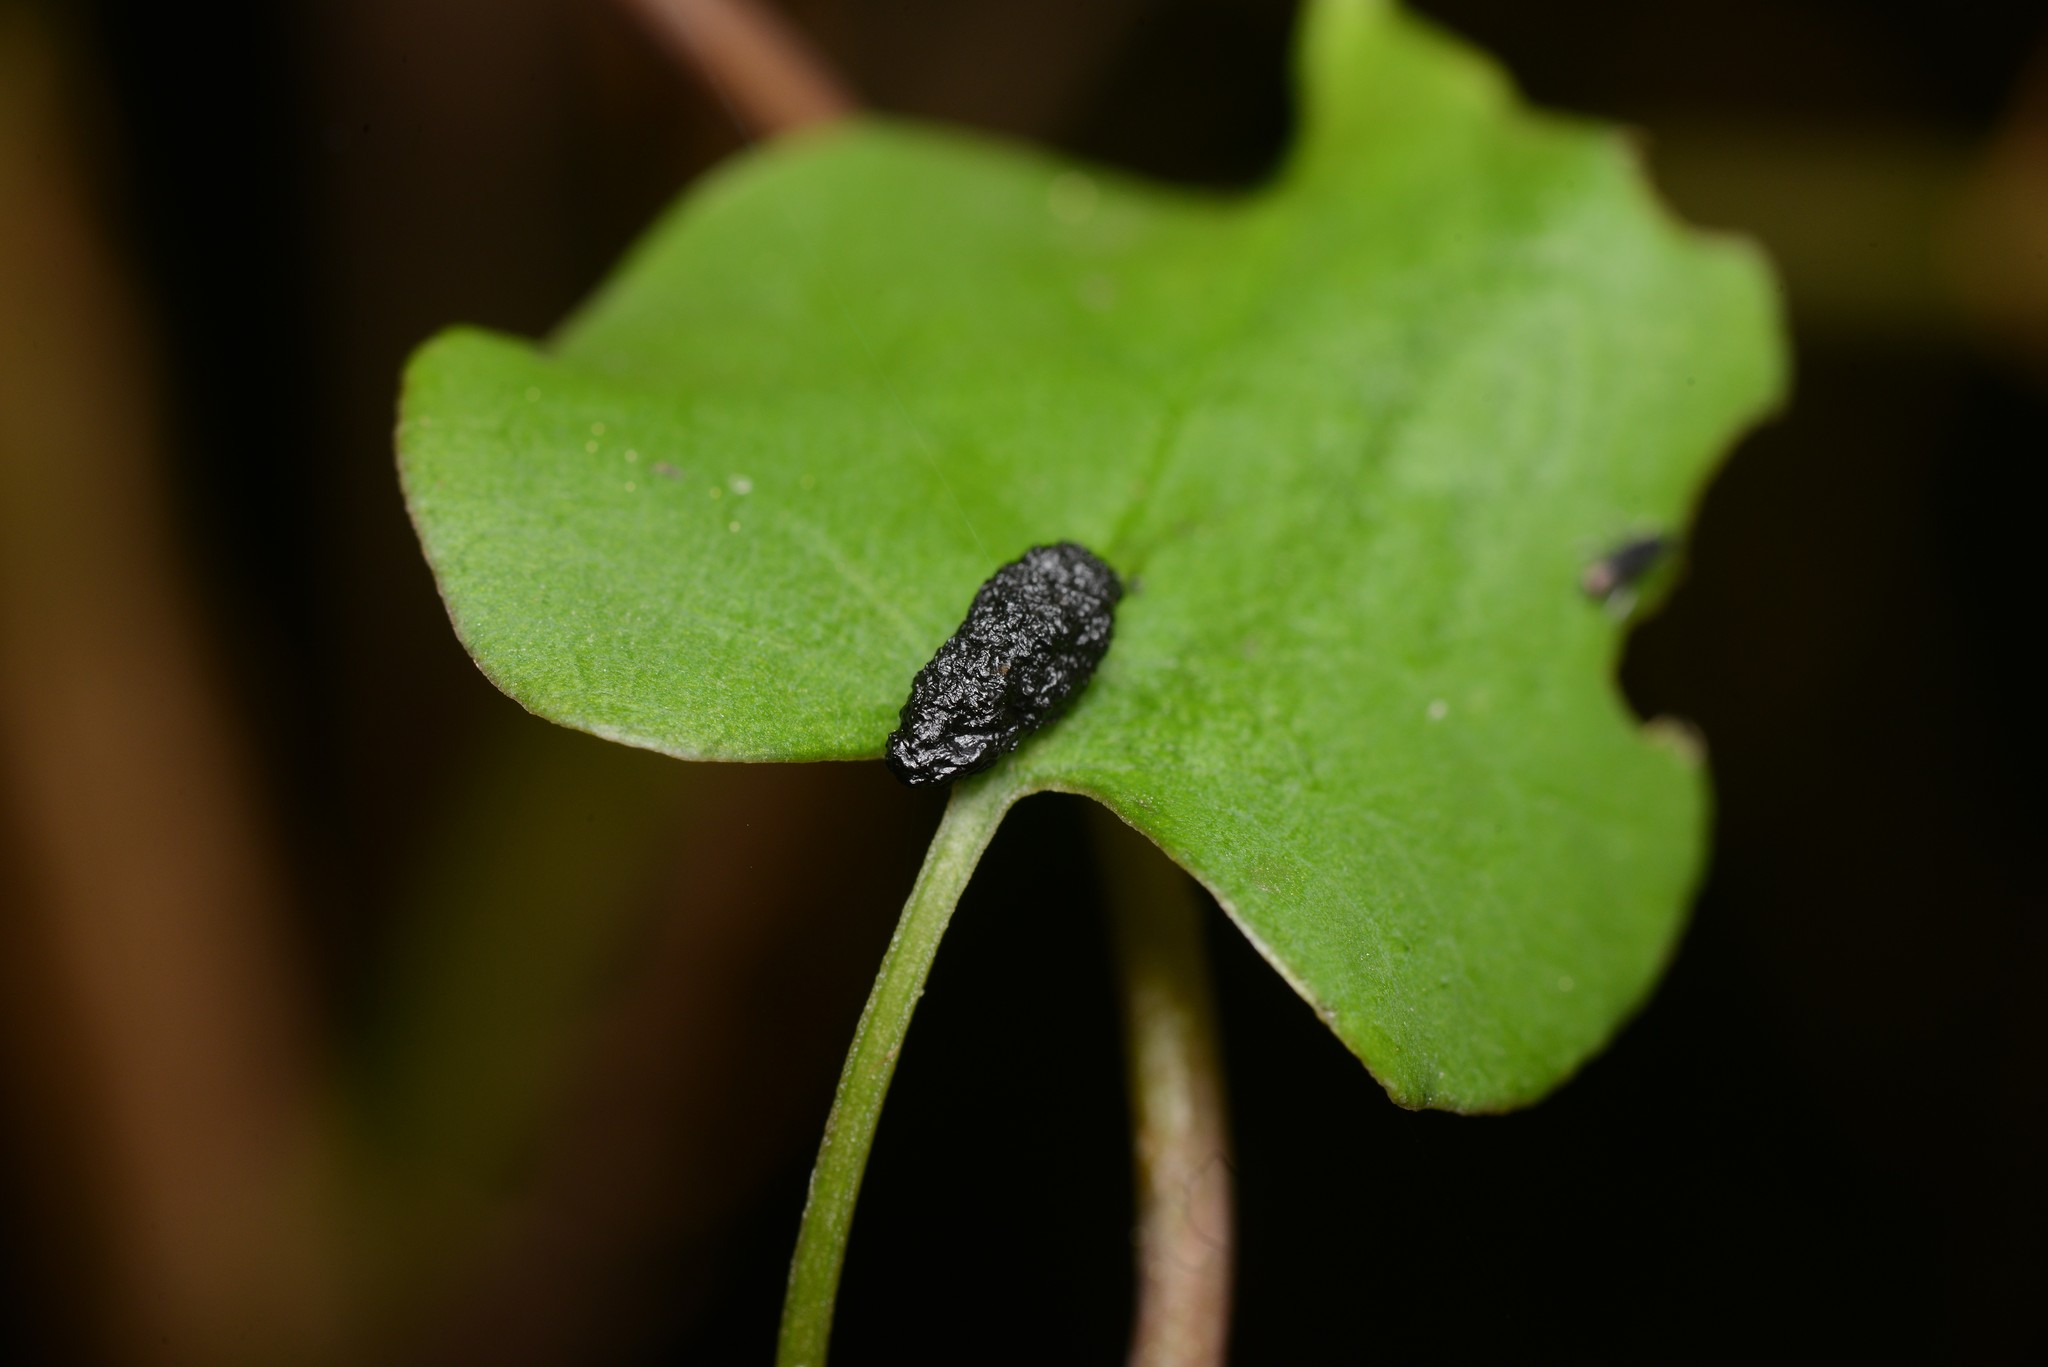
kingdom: Animalia
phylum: Chordata
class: Mammalia
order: Rodentia
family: Muridae
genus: Rattus
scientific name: Rattus rattus
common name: Black rat
